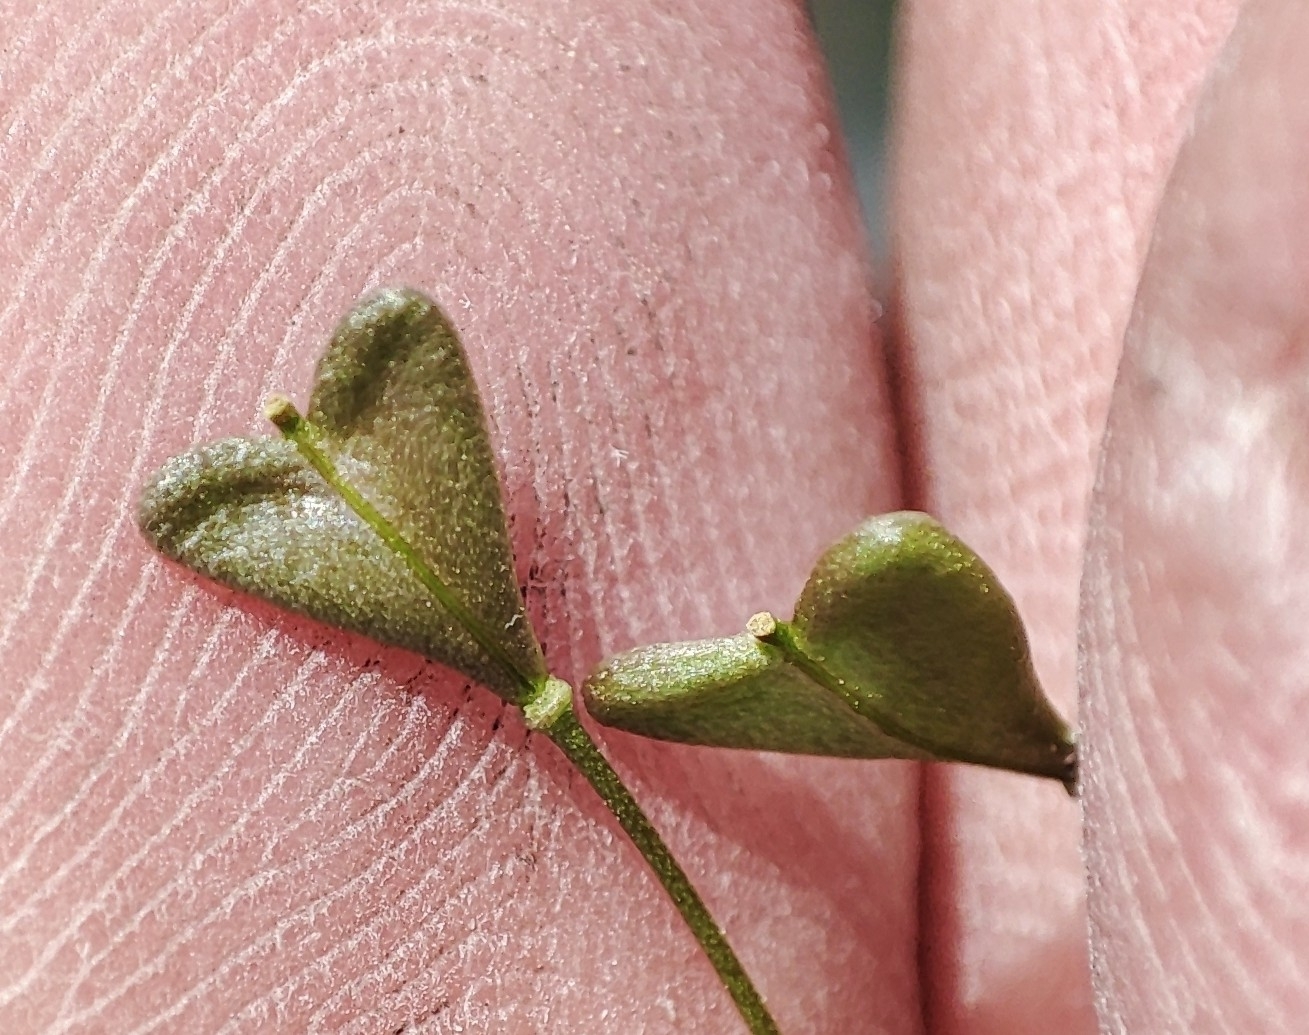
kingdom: Plantae
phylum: Tracheophyta
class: Magnoliopsida
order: Brassicales
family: Brassicaceae
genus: Capsella
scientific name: Capsella orientalis
